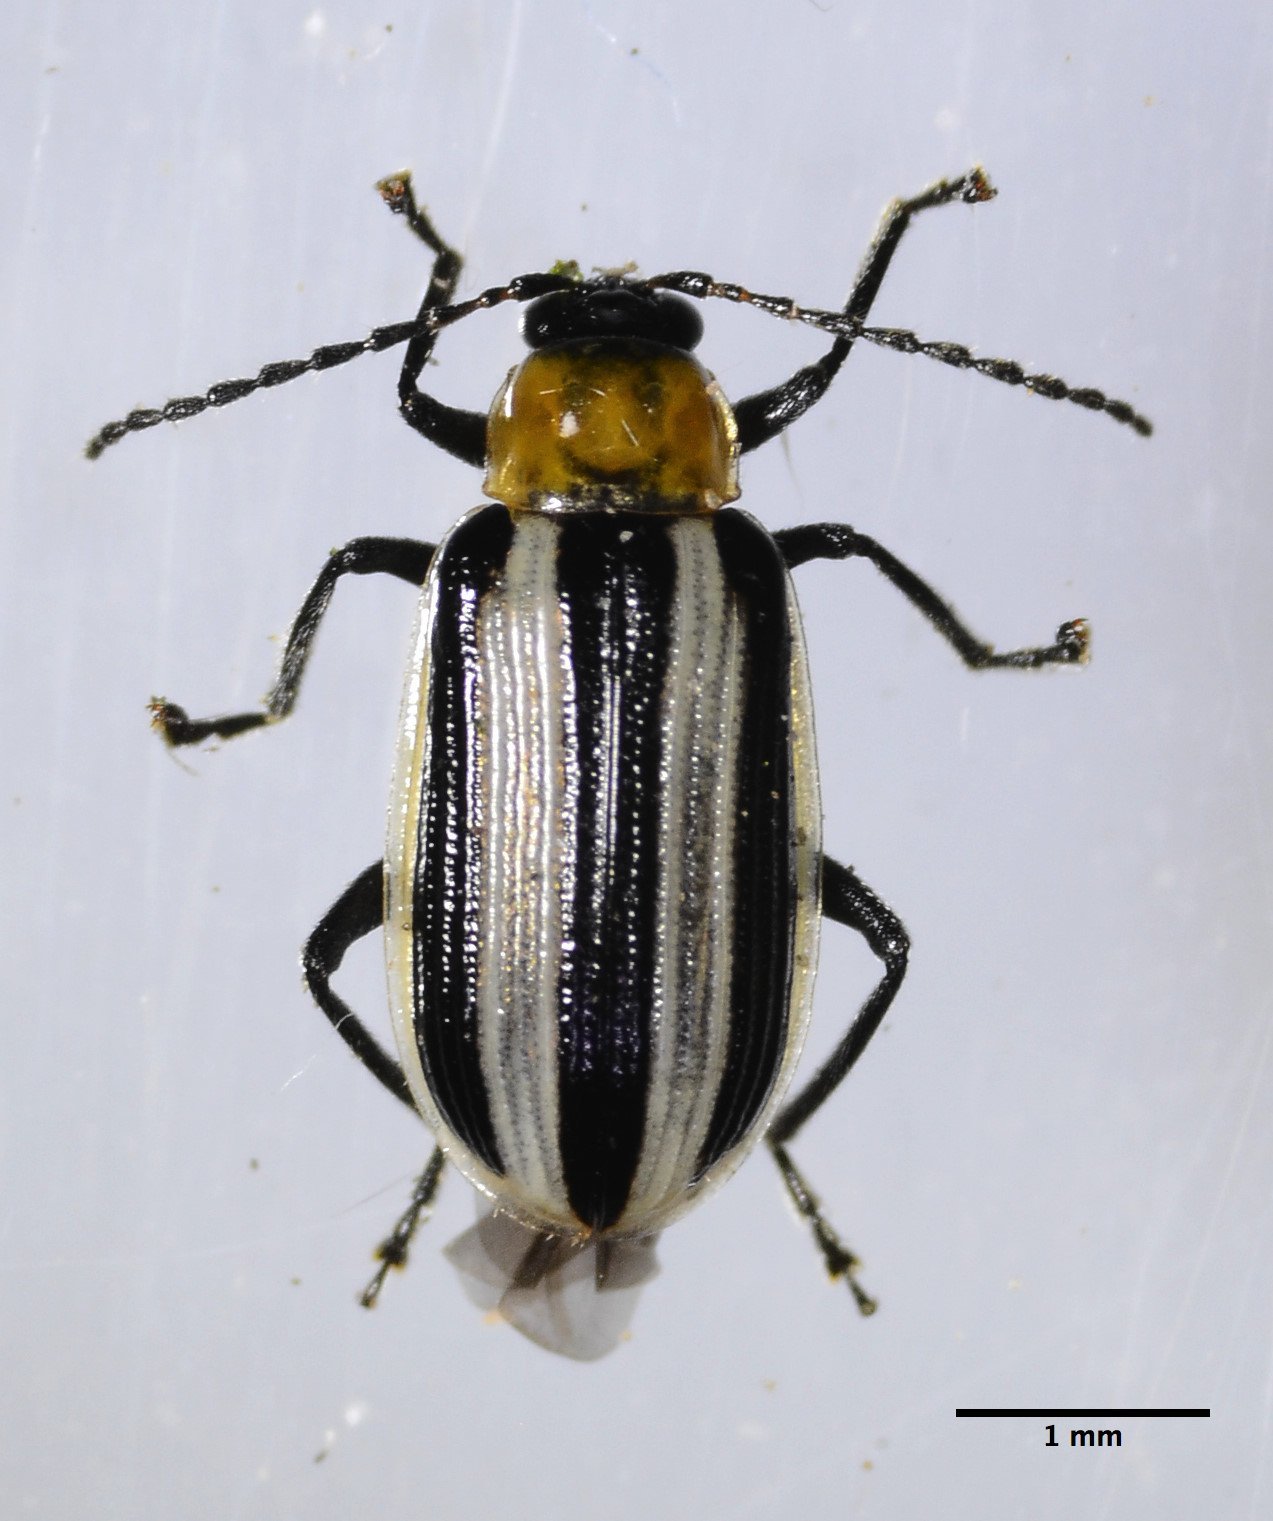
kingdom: Animalia
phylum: Arthropoda
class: Insecta
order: Coleoptera
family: Chrysomelidae
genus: Acalymma
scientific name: Acalymma trivittatum
